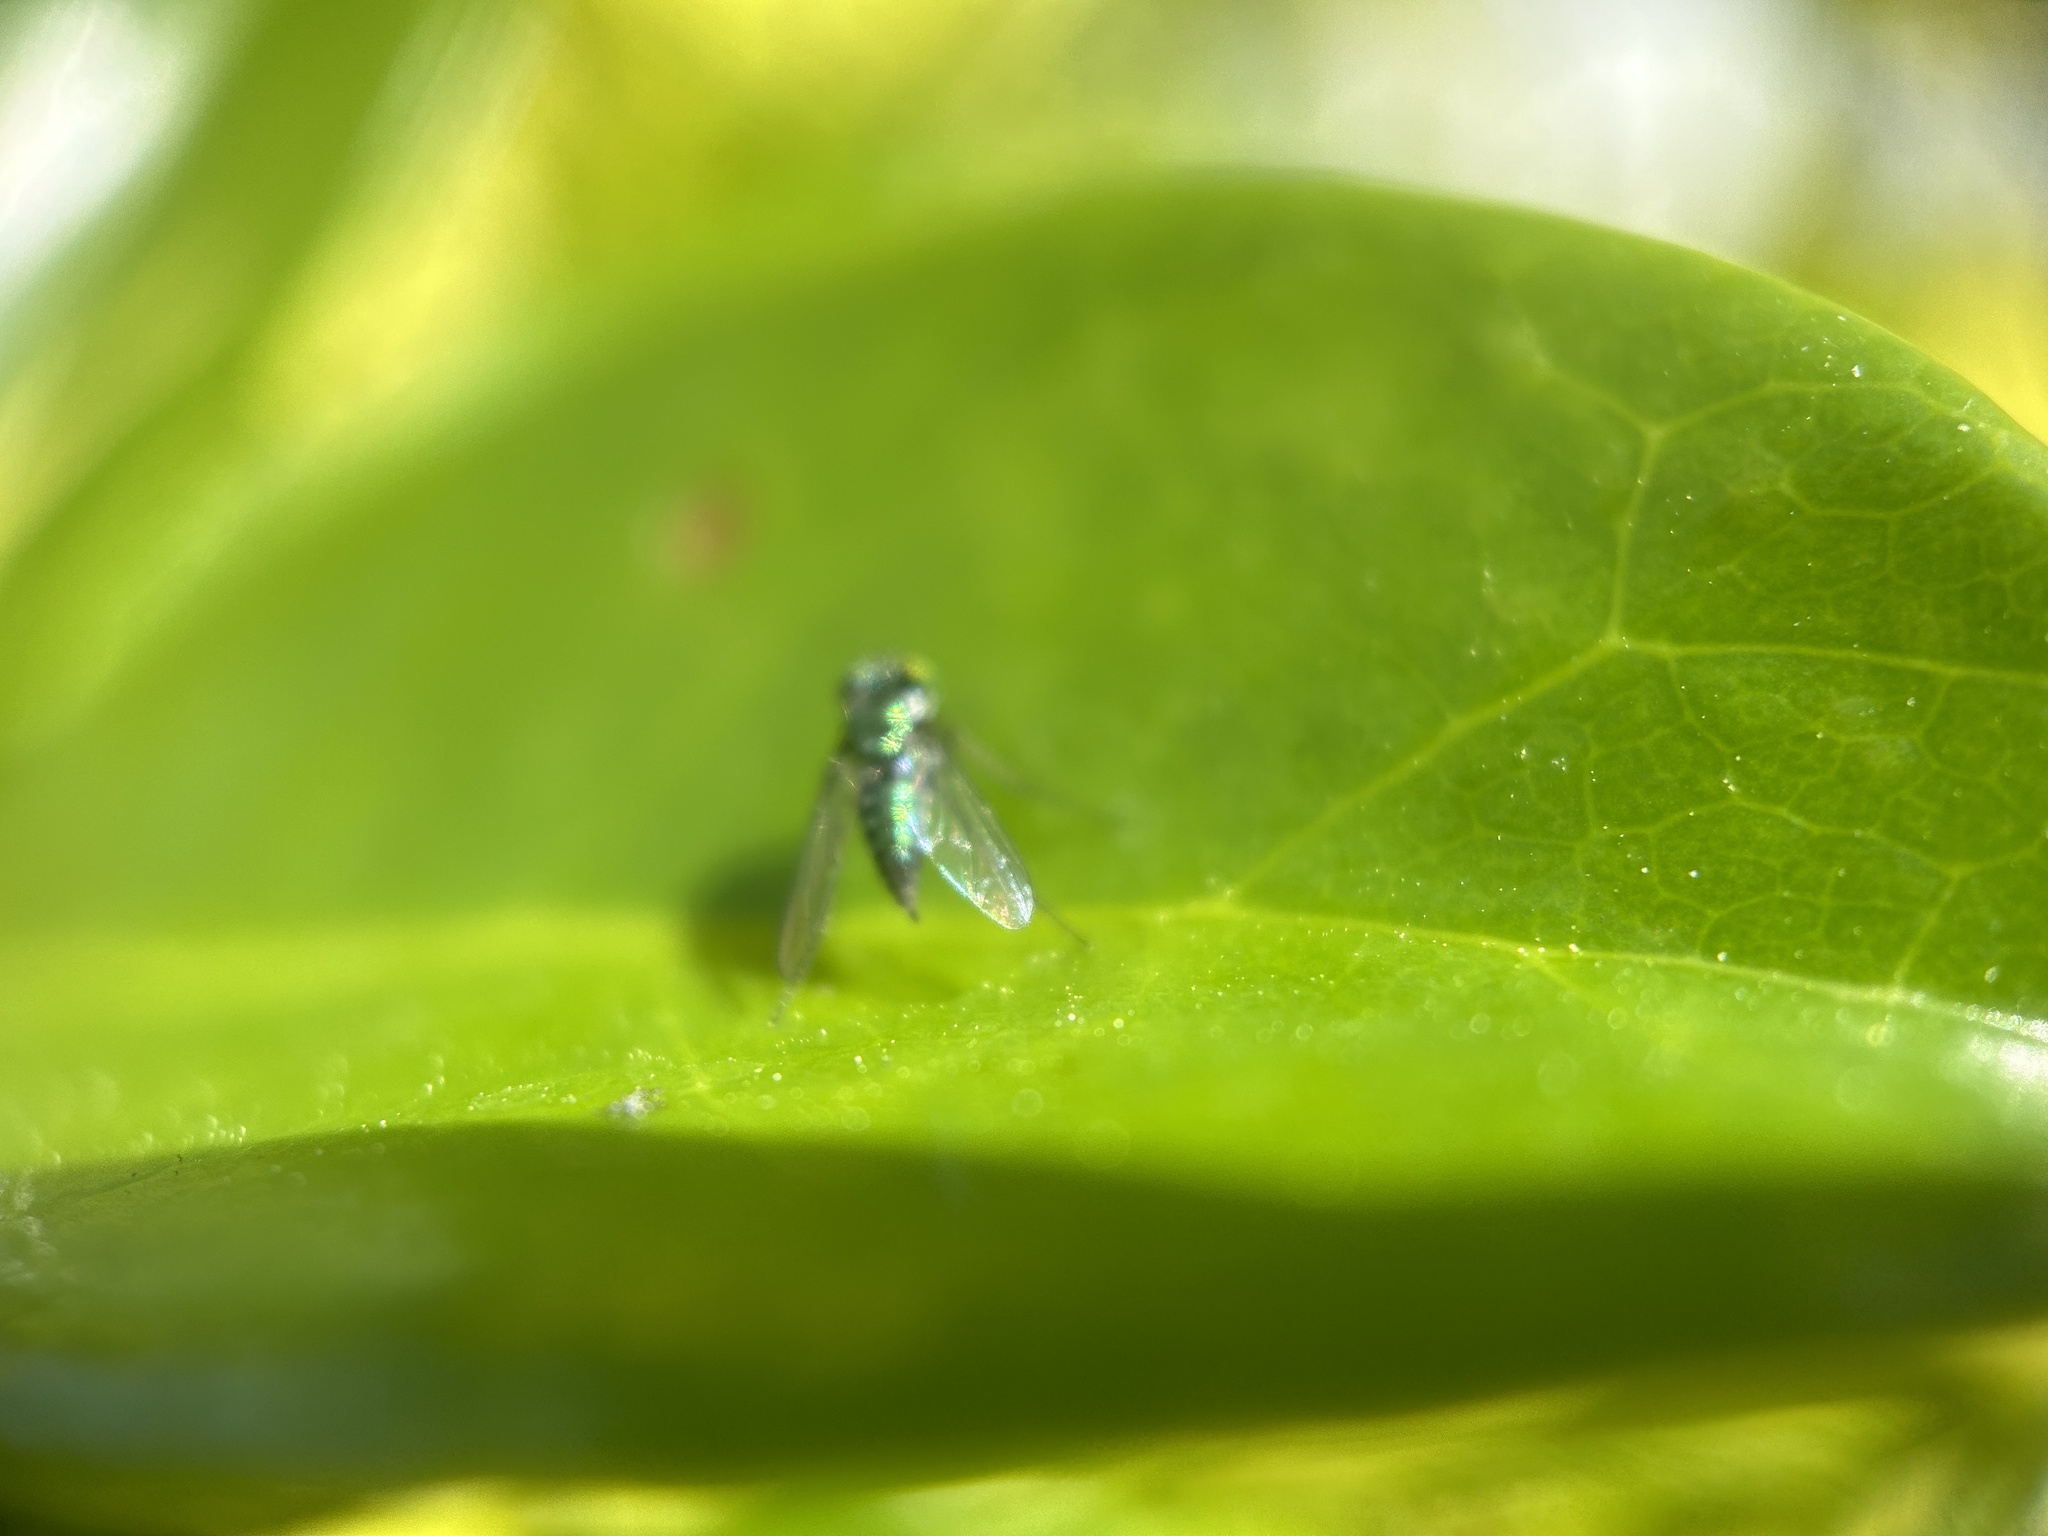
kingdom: Animalia
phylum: Arthropoda
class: Insecta
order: Diptera
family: Dolichopodidae
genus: Condylostylus
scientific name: Condylostylus purpureus
